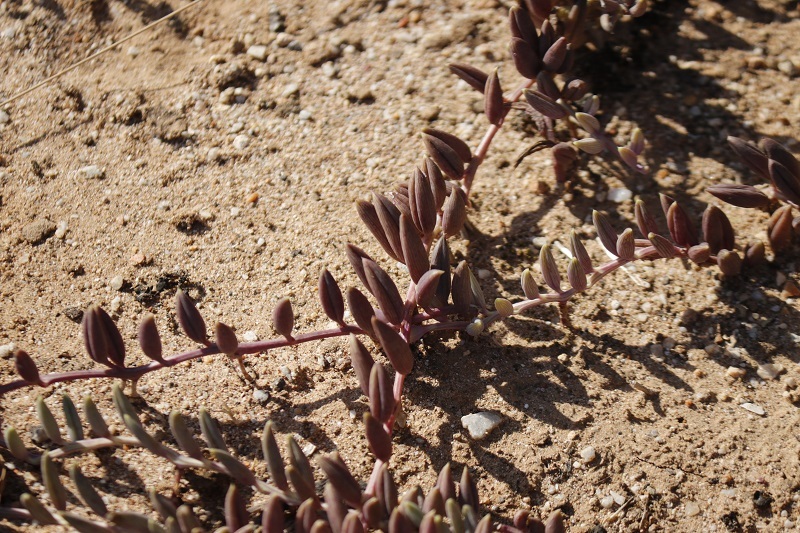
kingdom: Plantae
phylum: Tracheophyta
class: Magnoliopsida
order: Asterales
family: Asteraceae
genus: Curio
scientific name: Curio radicans
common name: Creeping-berry
